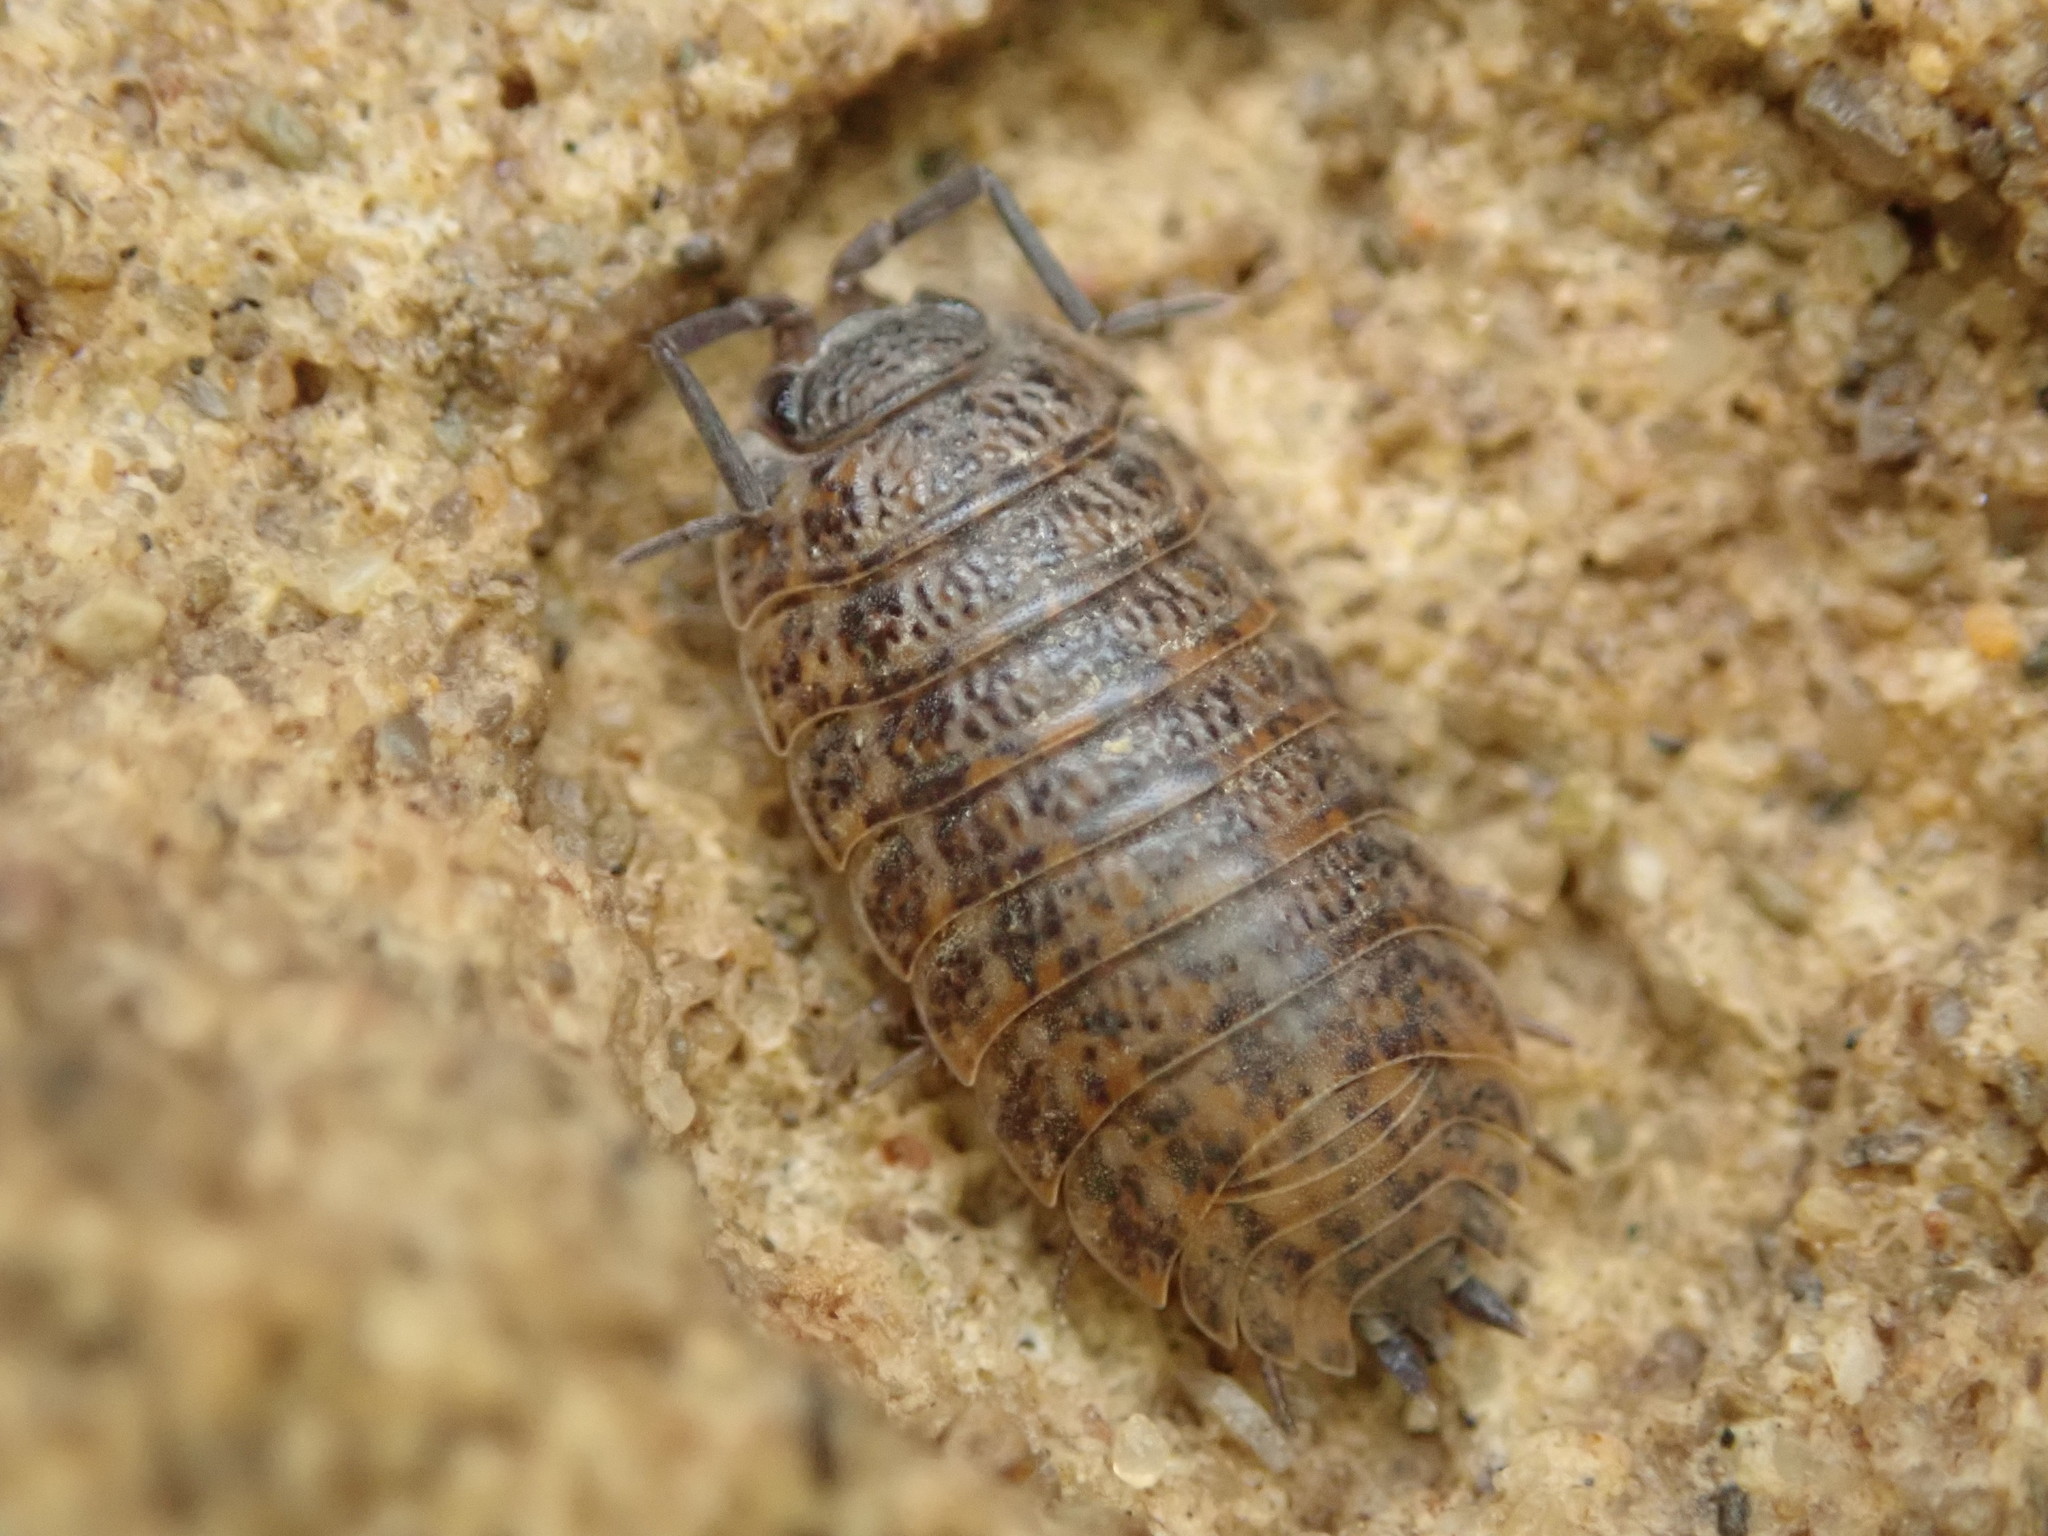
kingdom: Animalia
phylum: Arthropoda
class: Malacostraca
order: Isopoda
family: Trachelipodidae
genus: Trachelipus
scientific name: Trachelipus rathkii
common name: Isopod
